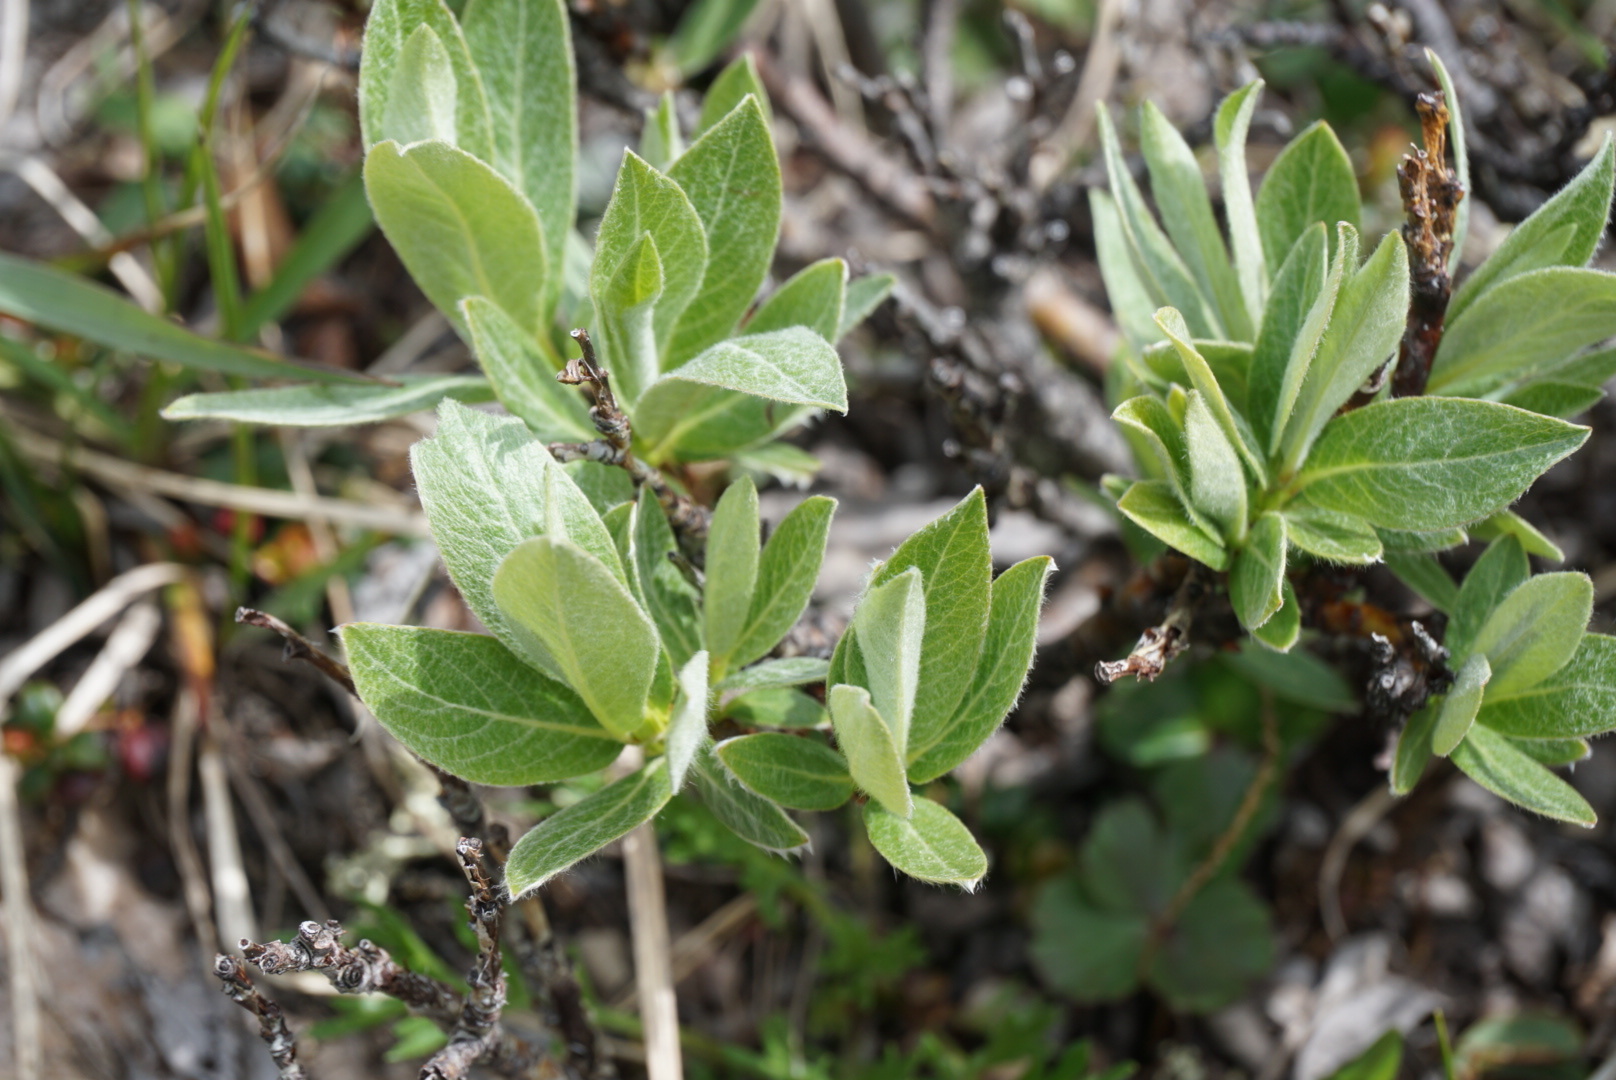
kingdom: Plantae
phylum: Tracheophyta
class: Magnoliopsida
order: Malpighiales
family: Salicaceae
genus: Salix
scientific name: Salix barrattiana
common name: Barratt's willow
